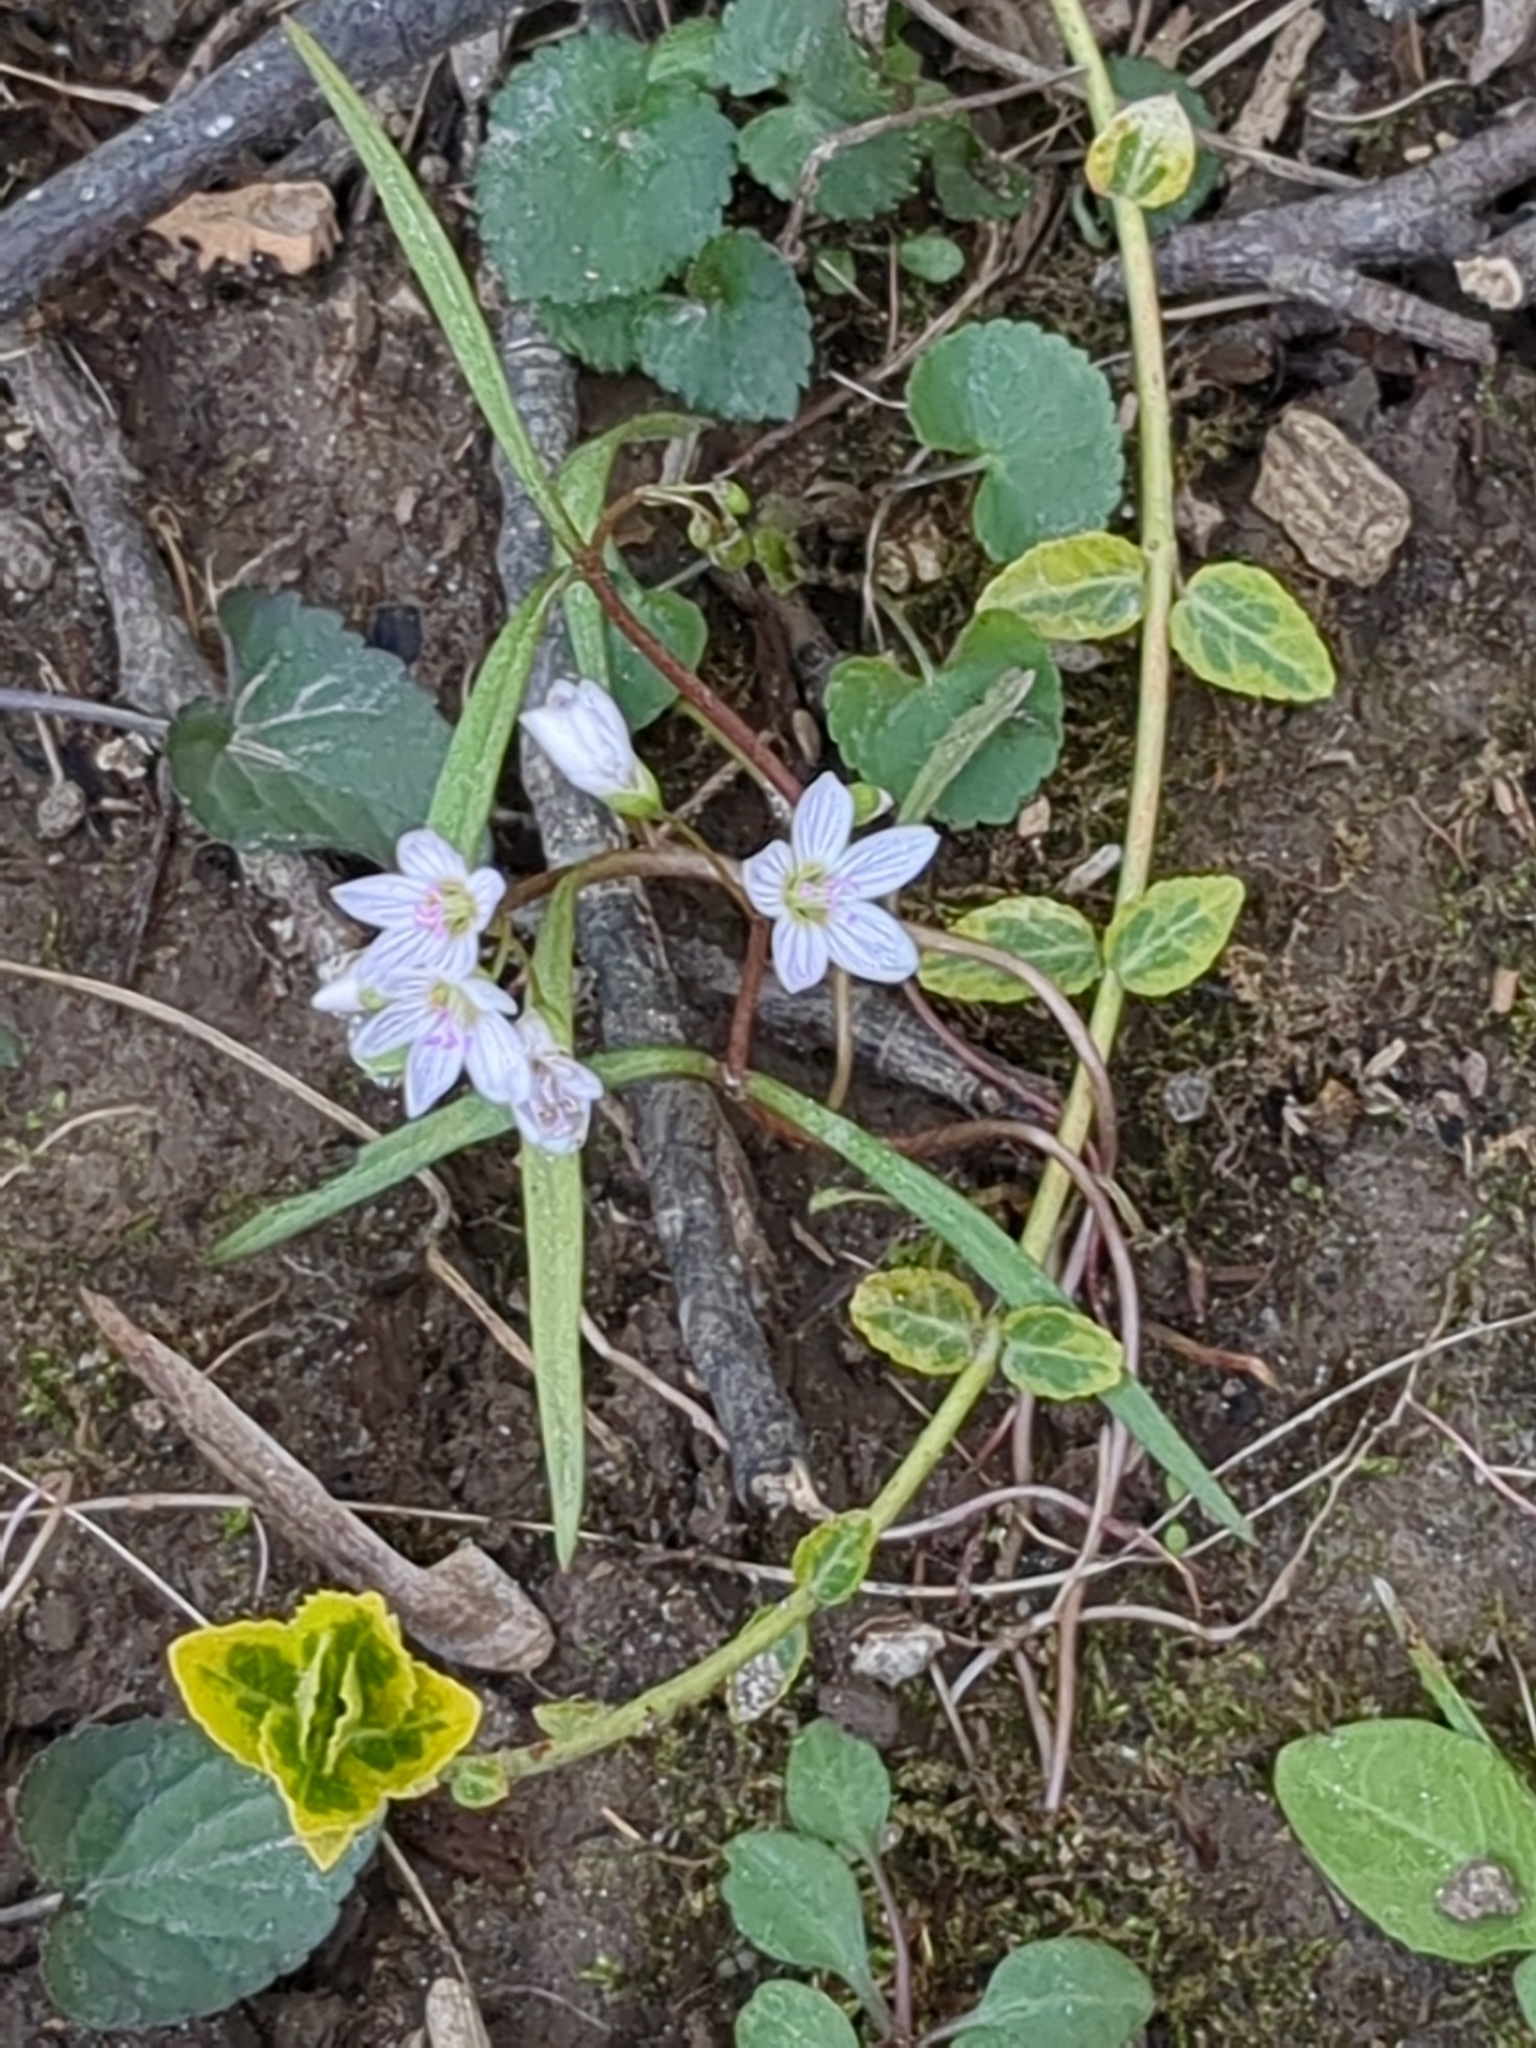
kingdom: Plantae
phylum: Tracheophyta
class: Magnoliopsida
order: Caryophyllales
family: Montiaceae
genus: Claytonia
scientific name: Claytonia virginica
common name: Virginia springbeauty
